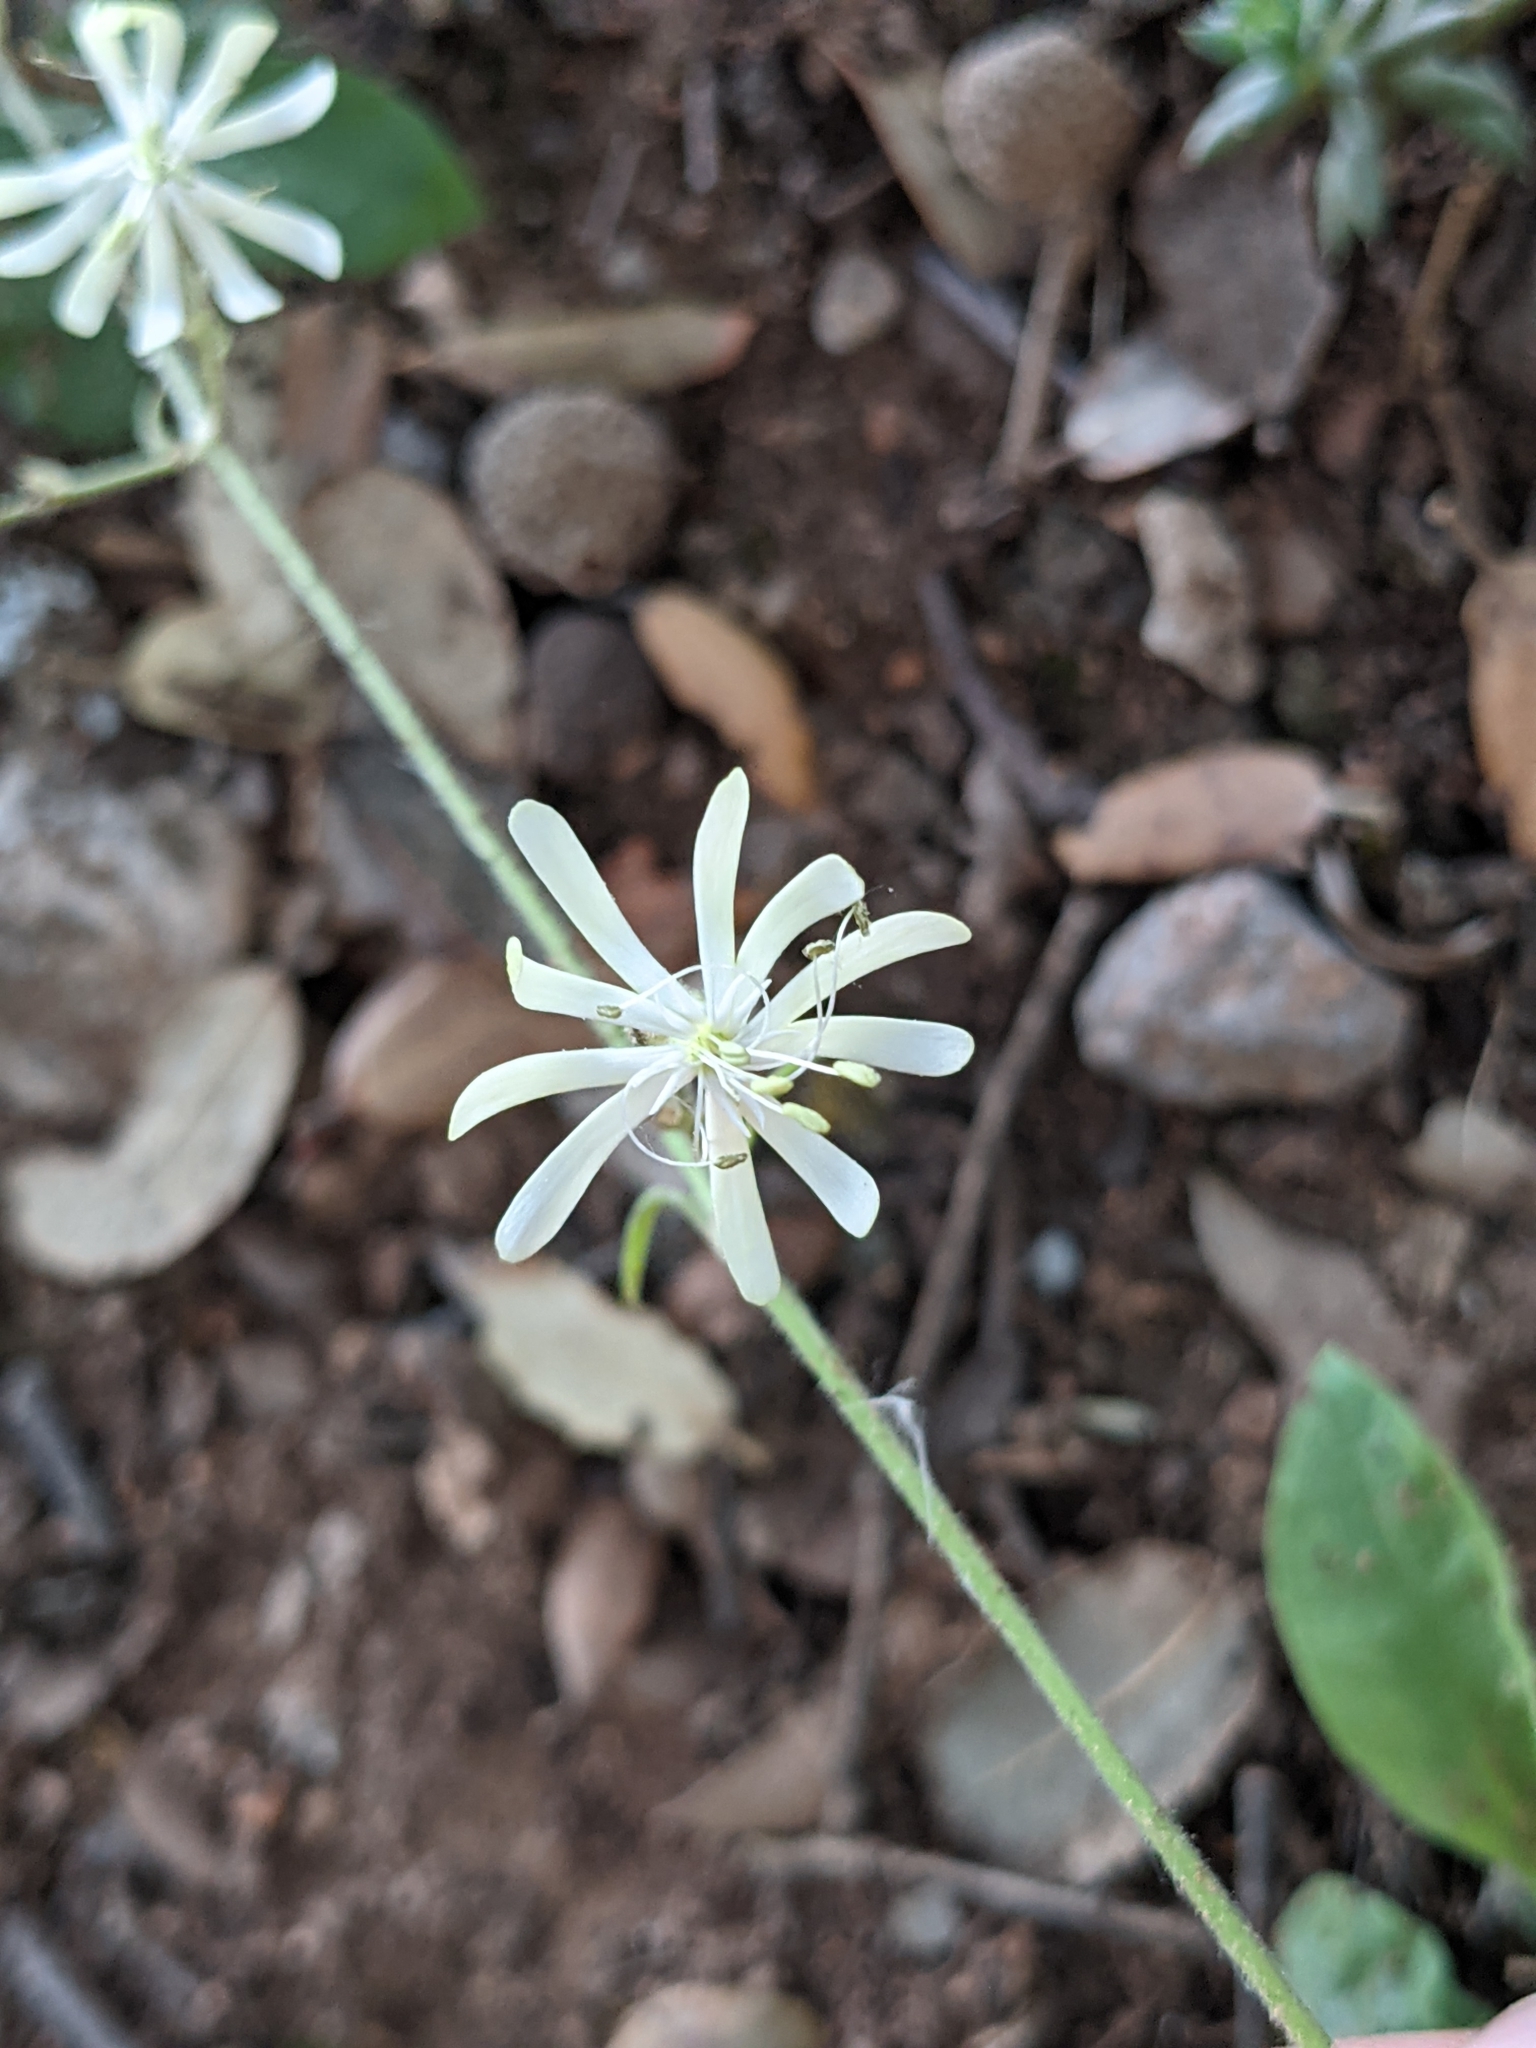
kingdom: Plantae
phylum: Tracheophyta
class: Magnoliopsida
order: Caryophyllales
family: Caryophyllaceae
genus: Silene
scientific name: Silene nutans
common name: Nottingham catchfly
